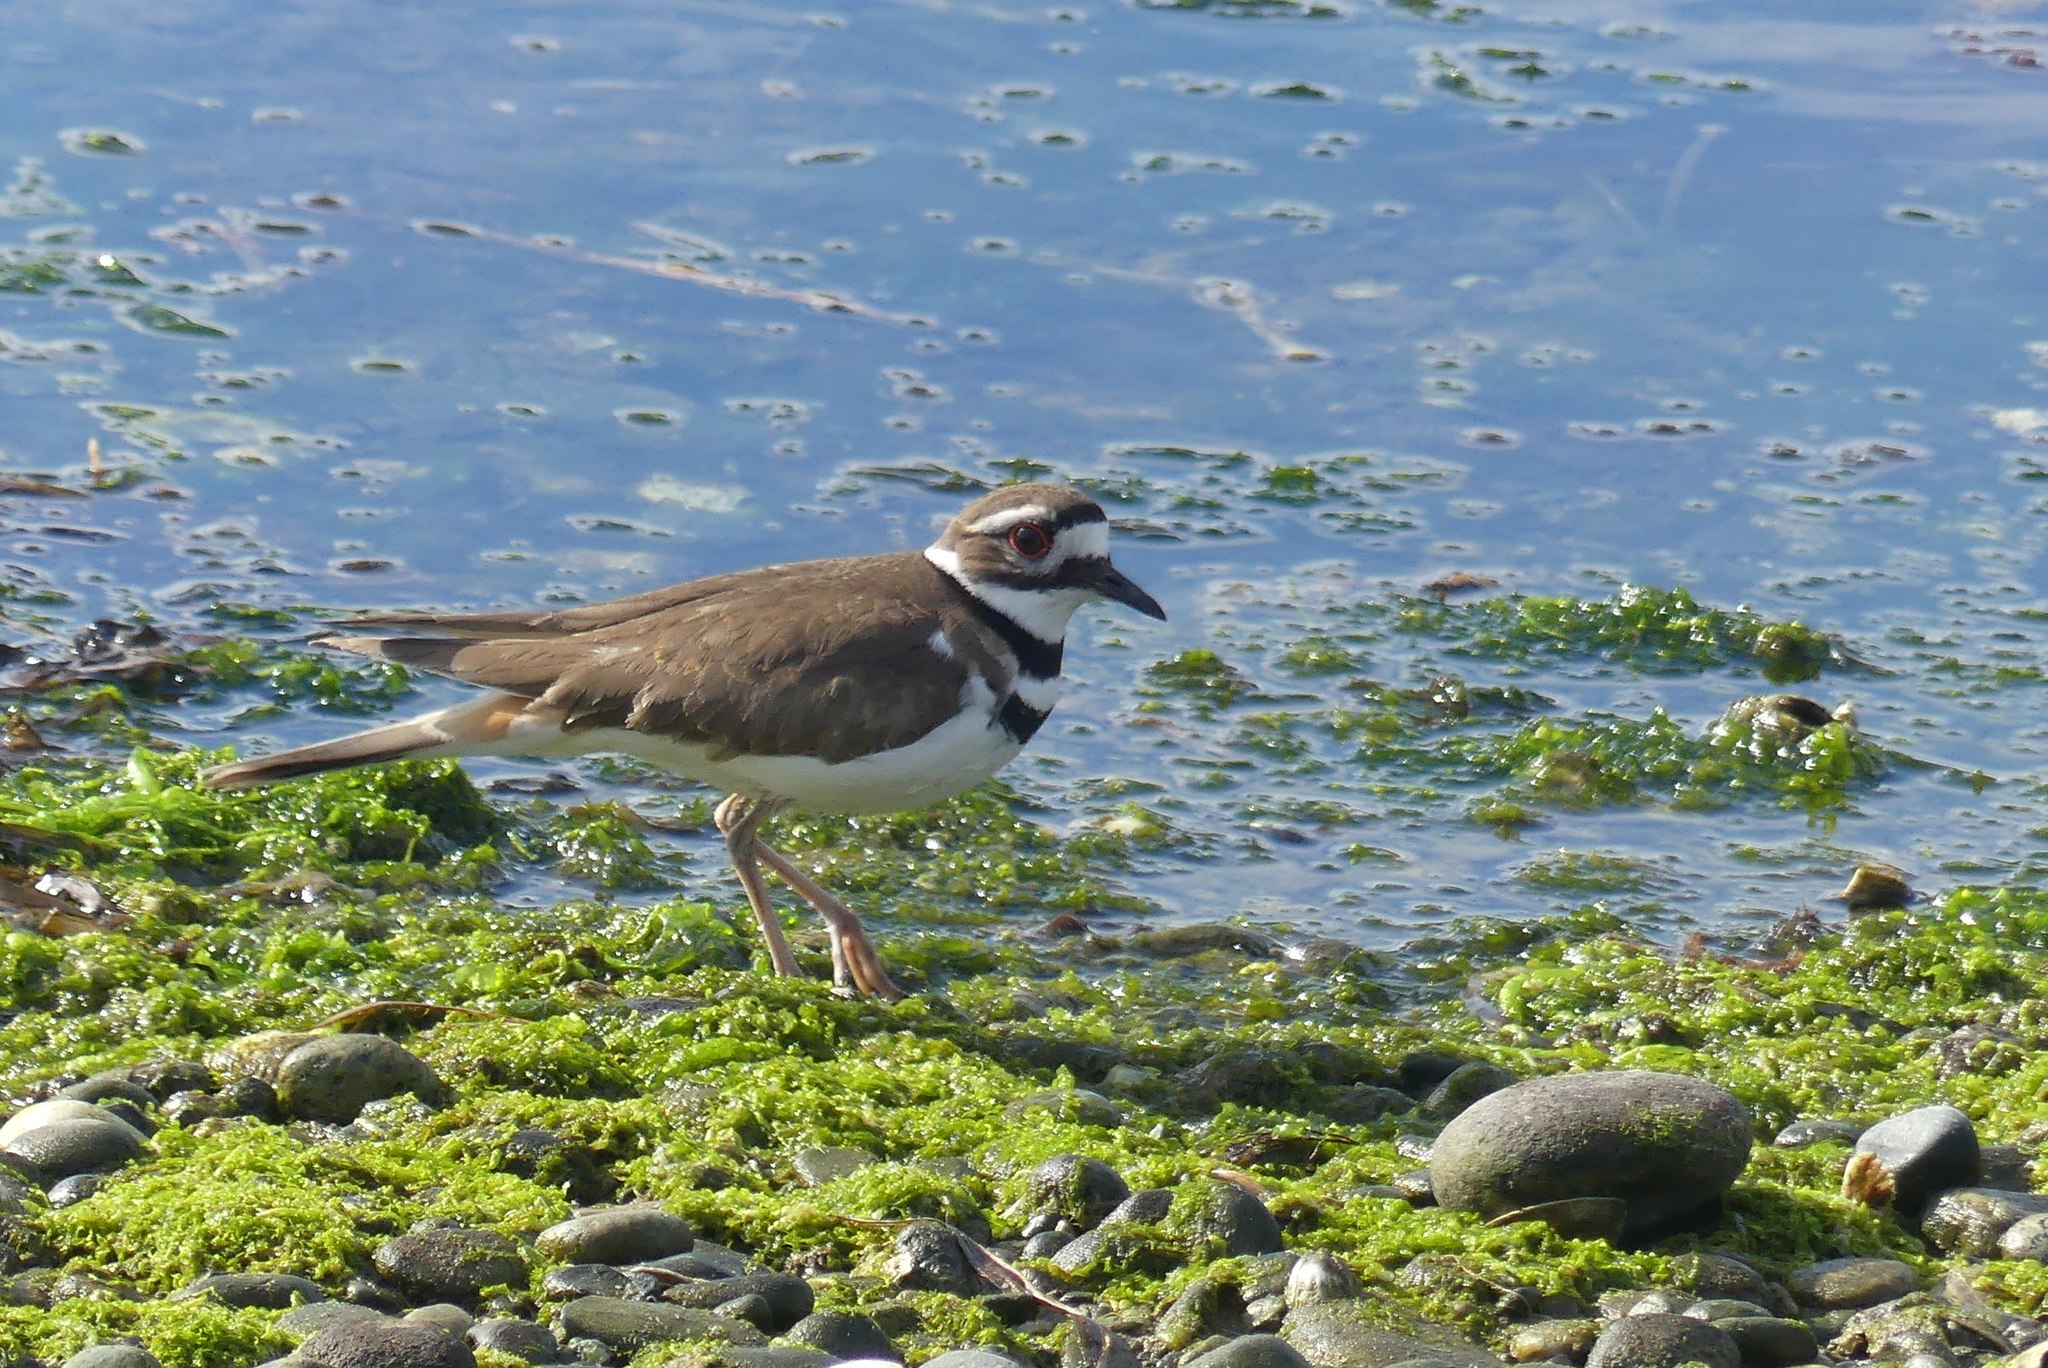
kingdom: Animalia
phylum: Chordata
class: Aves
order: Charadriiformes
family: Charadriidae
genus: Charadrius
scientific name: Charadrius vociferus
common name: Killdeer
